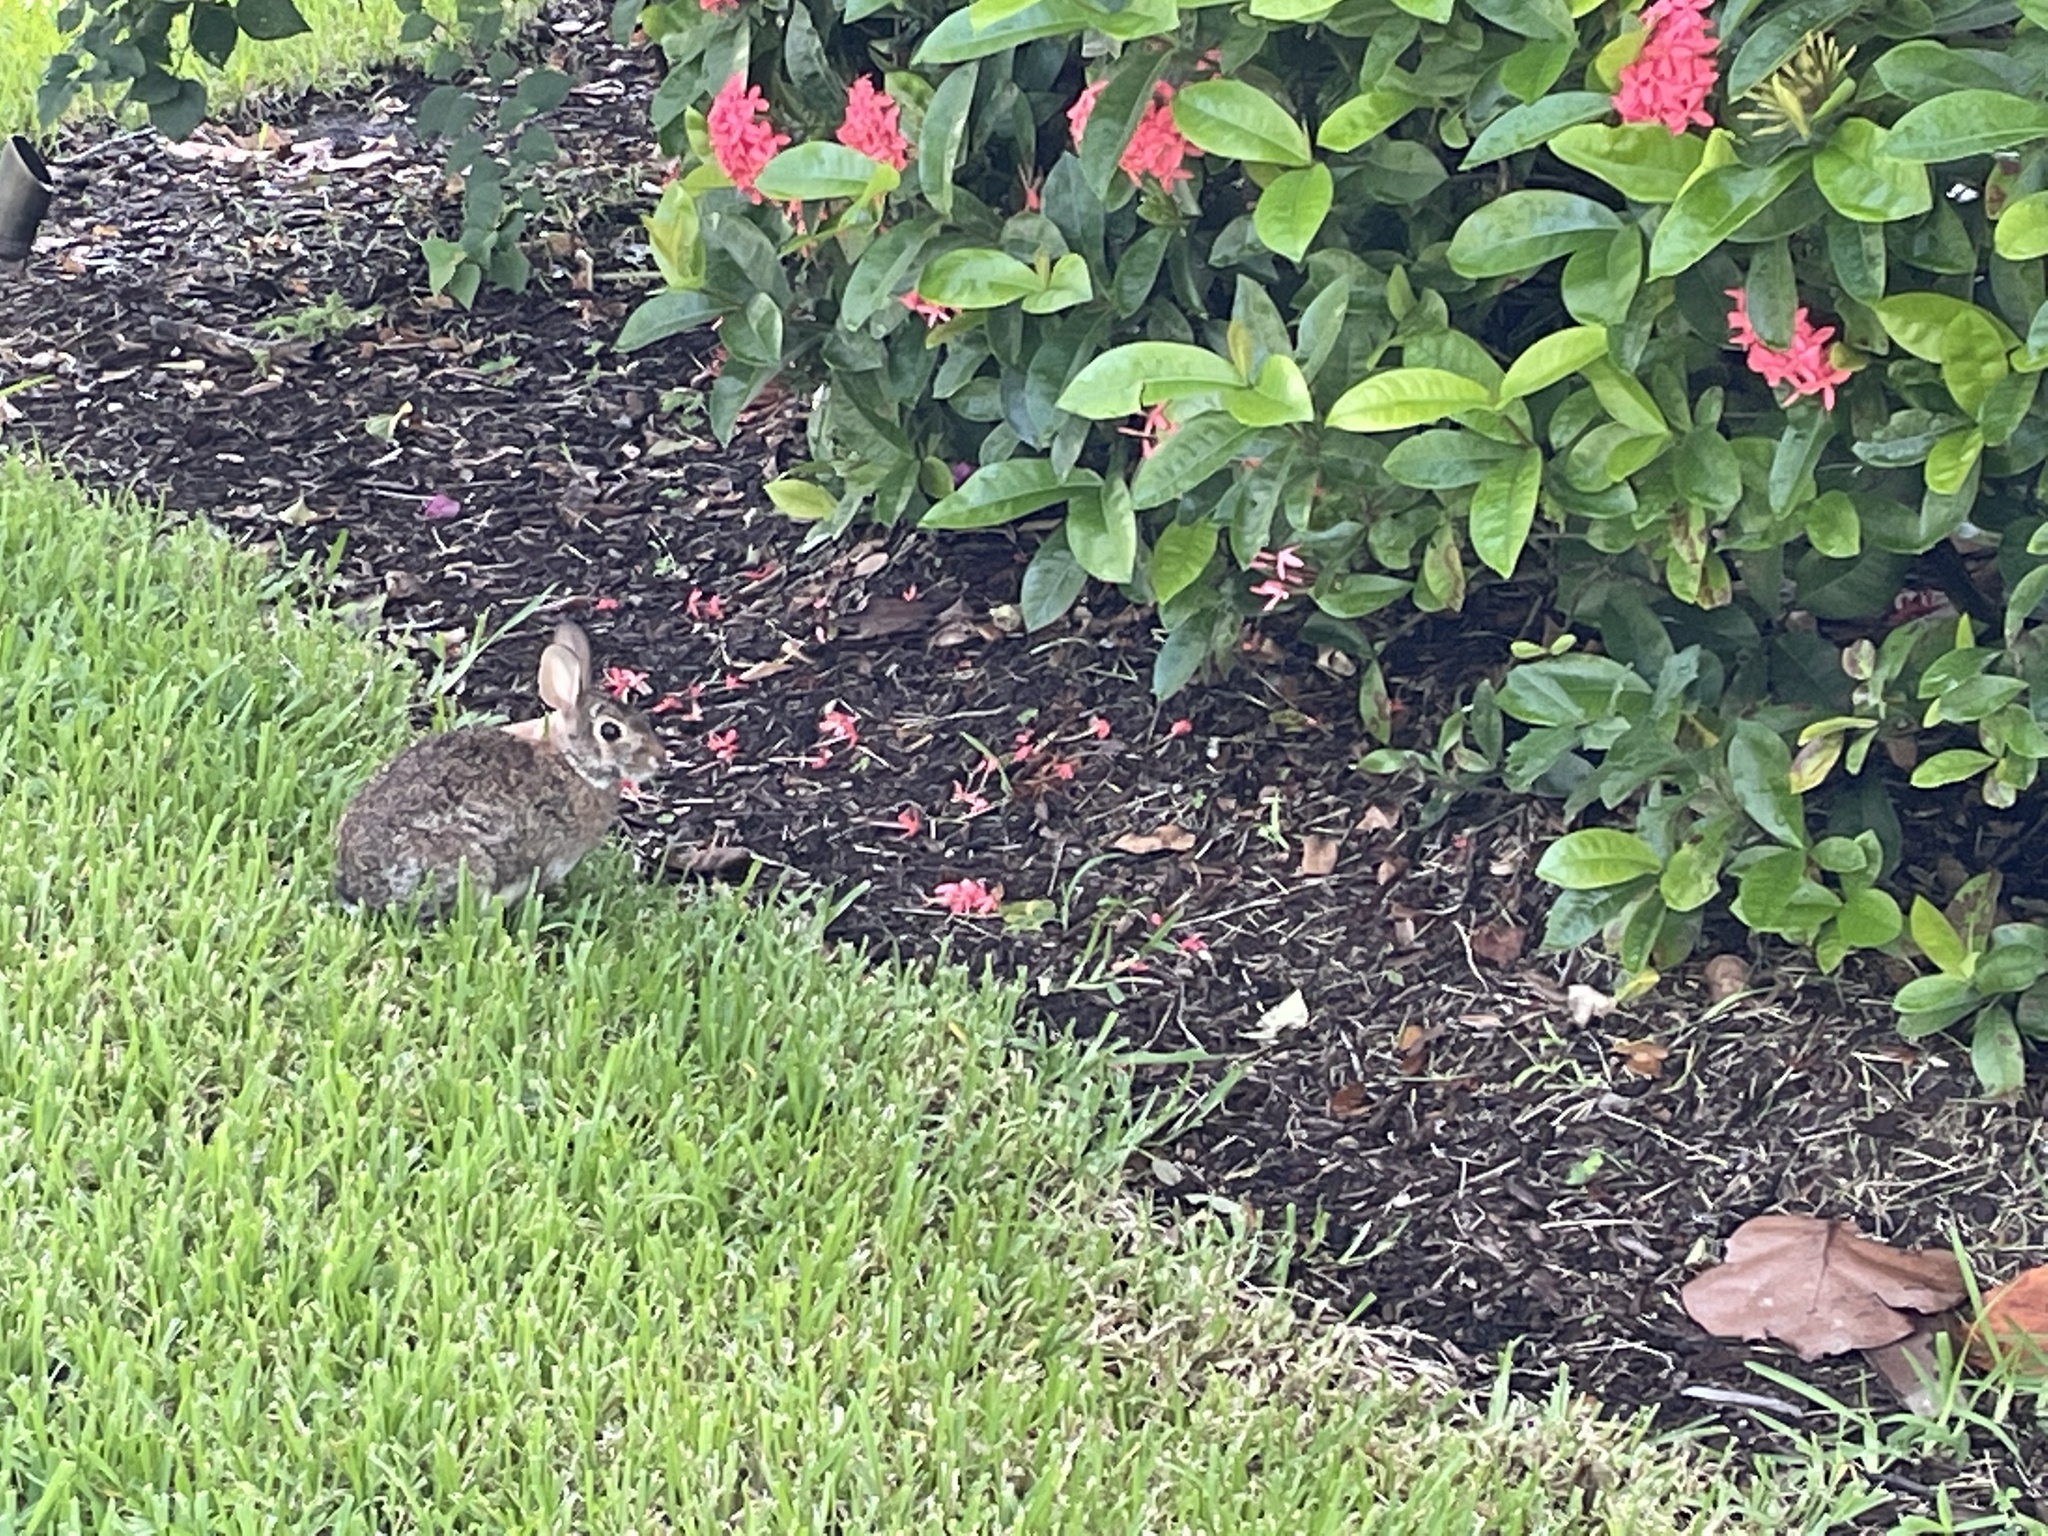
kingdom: Animalia
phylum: Chordata
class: Mammalia
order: Lagomorpha
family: Leporidae
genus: Sylvilagus
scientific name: Sylvilagus floridanus
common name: Eastern cottontail
